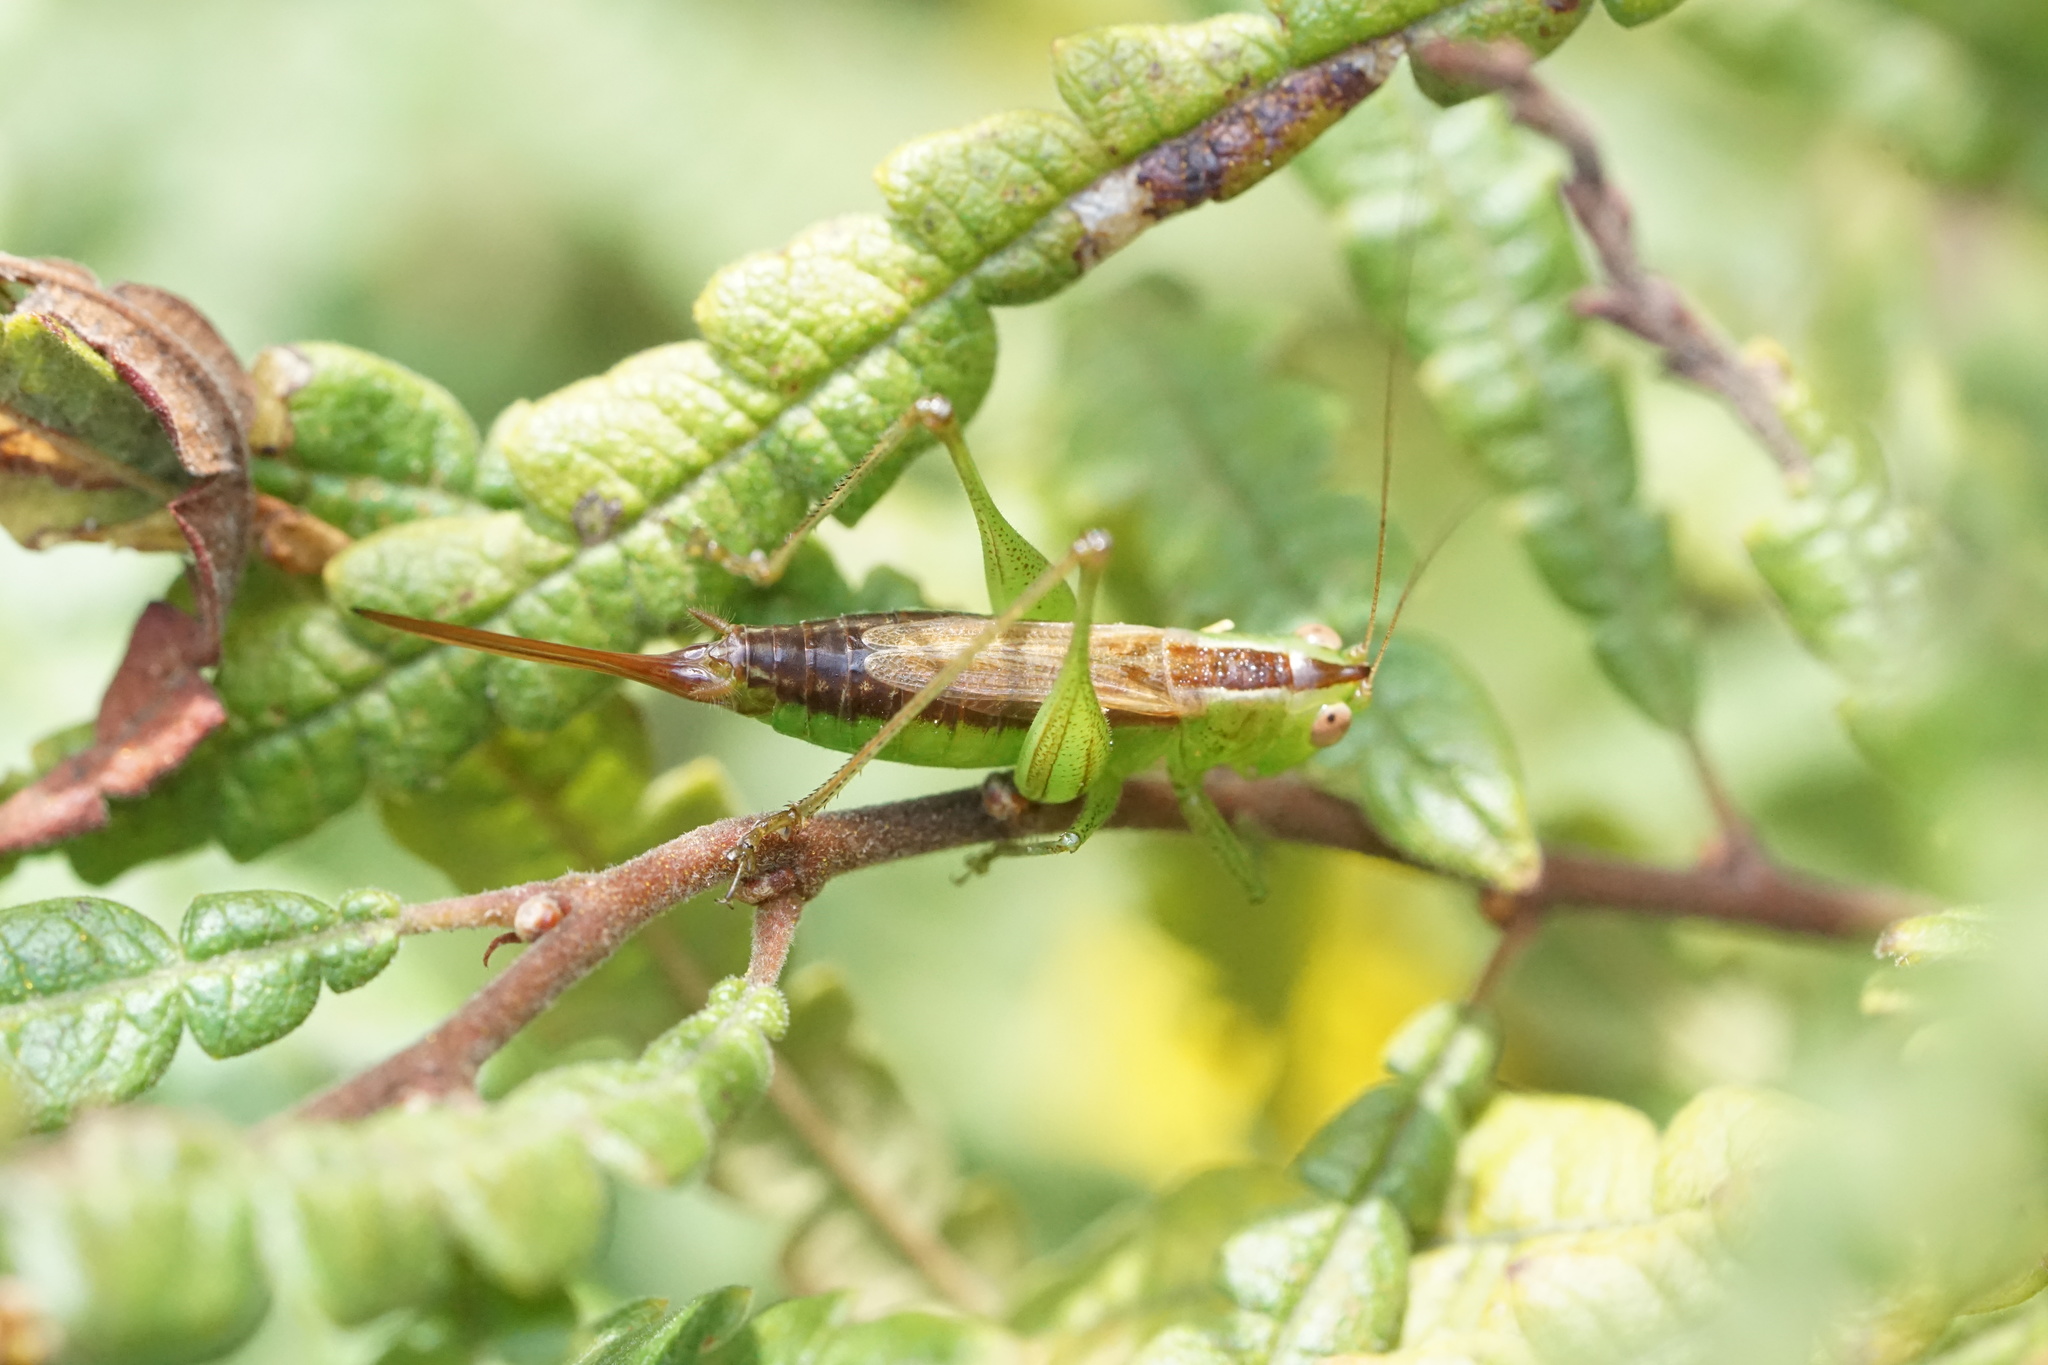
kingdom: Animalia
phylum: Arthropoda
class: Insecta
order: Orthoptera
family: Tettigoniidae
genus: Conocephalus
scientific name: Conocephalus brevipennis
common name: Short-winged meadow katydid
